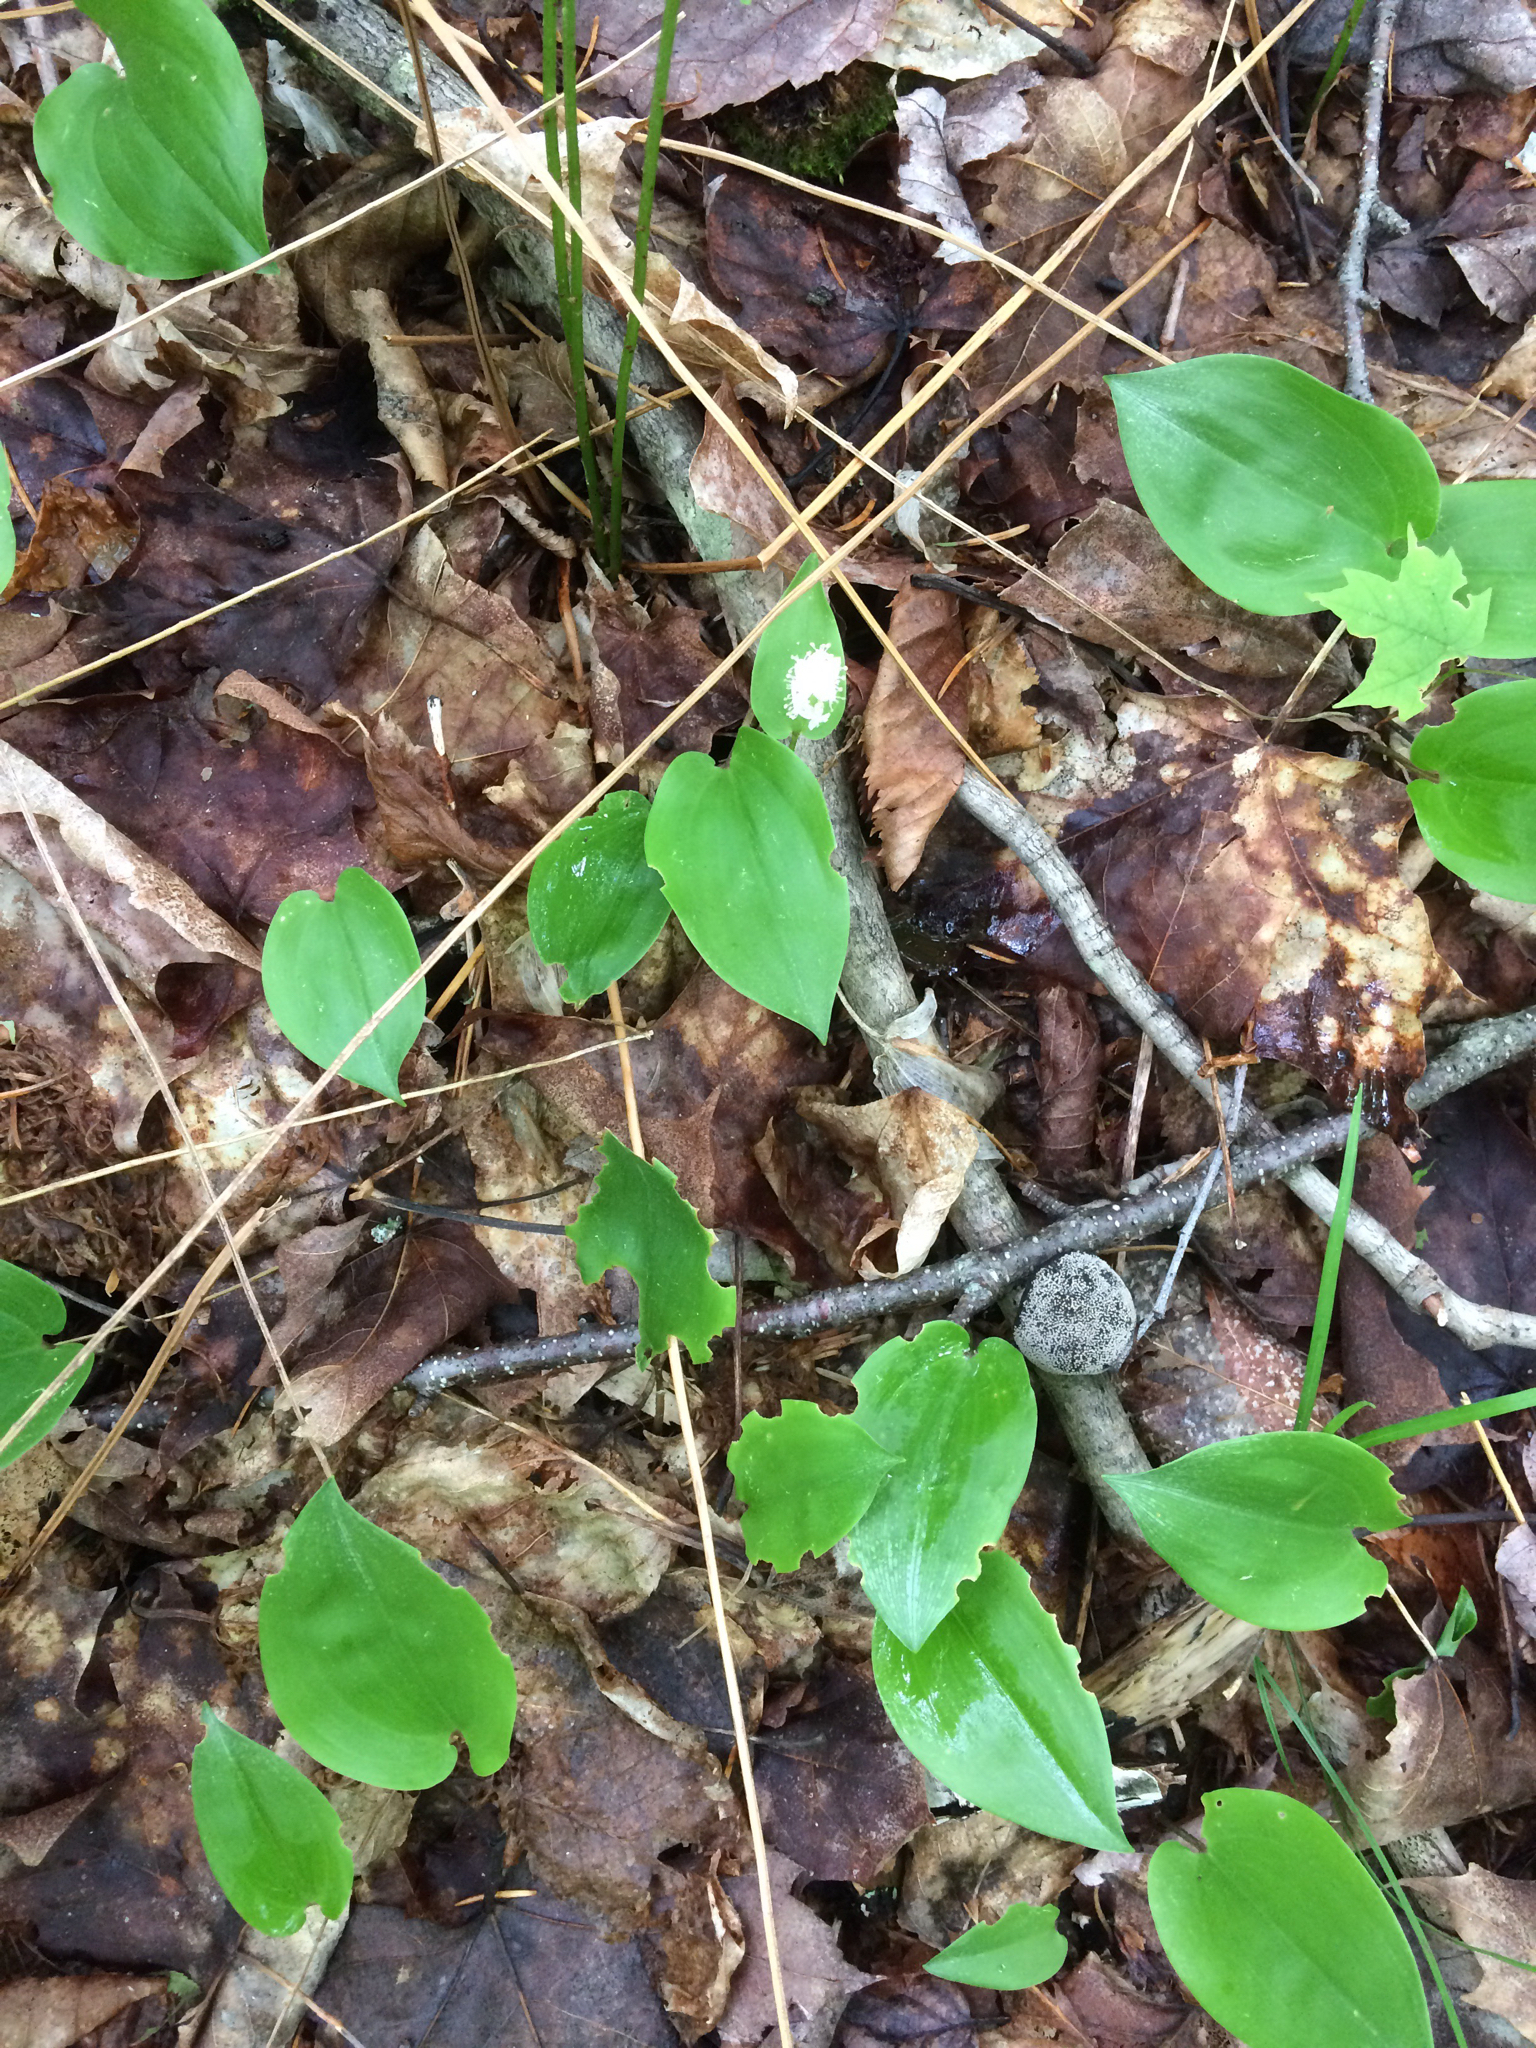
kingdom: Plantae
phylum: Tracheophyta
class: Liliopsida
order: Asparagales
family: Asparagaceae
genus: Maianthemum
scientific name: Maianthemum canadense
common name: False lily-of-the-valley
